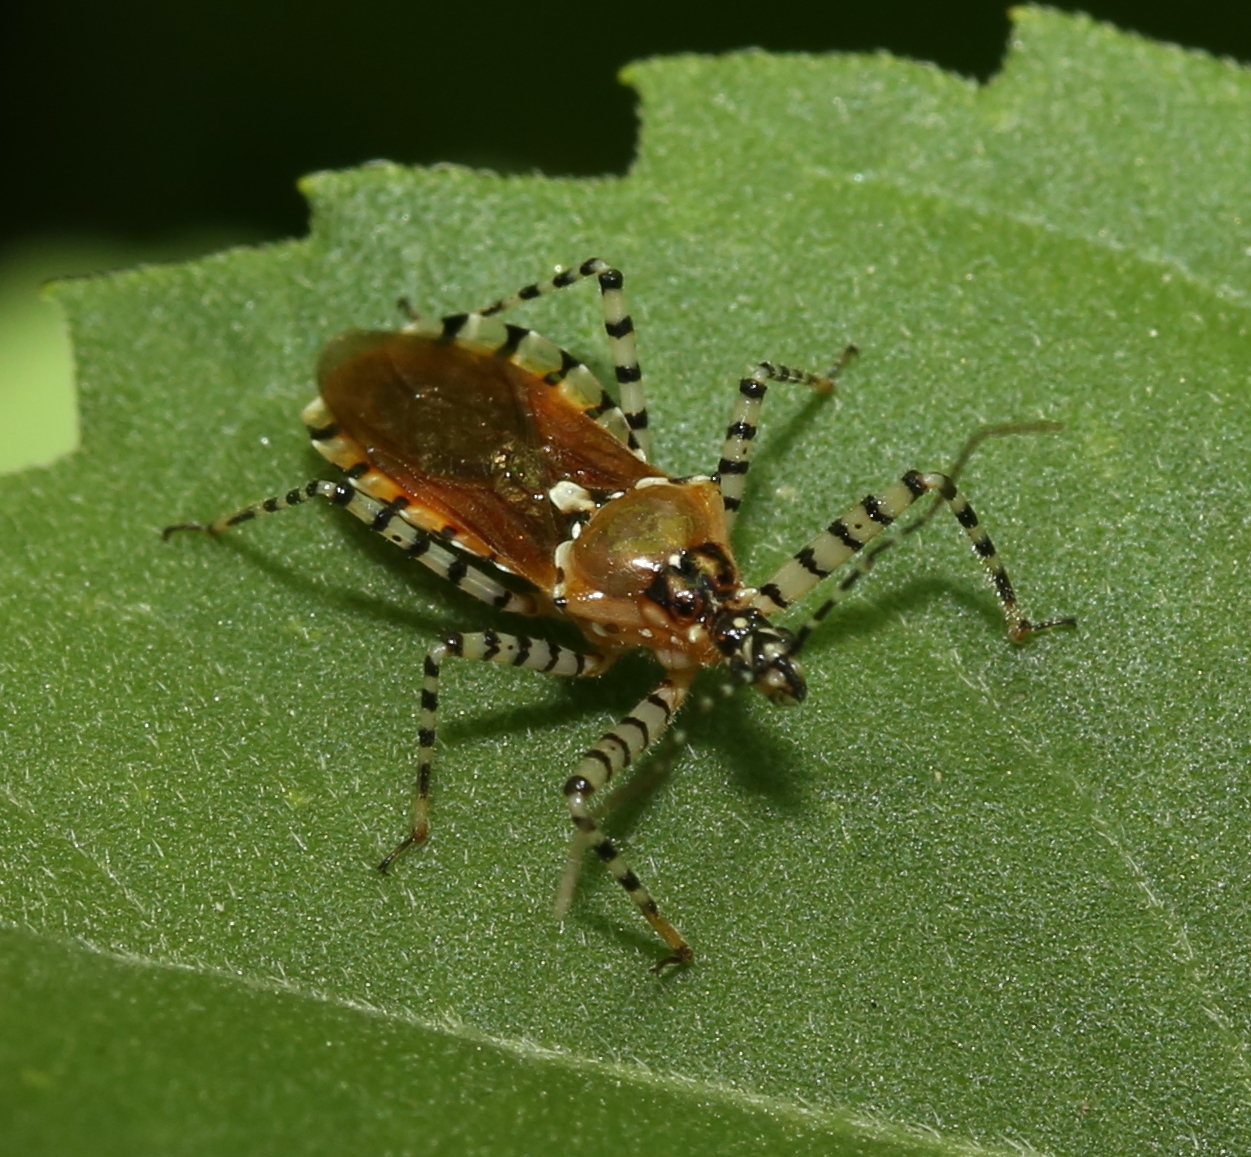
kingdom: Animalia
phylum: Arthropoda
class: Insecta
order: Hemiptera
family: Reduviidae
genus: Pselliopus
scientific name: Pselliopus cinctus
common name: Ringed assassin bug
